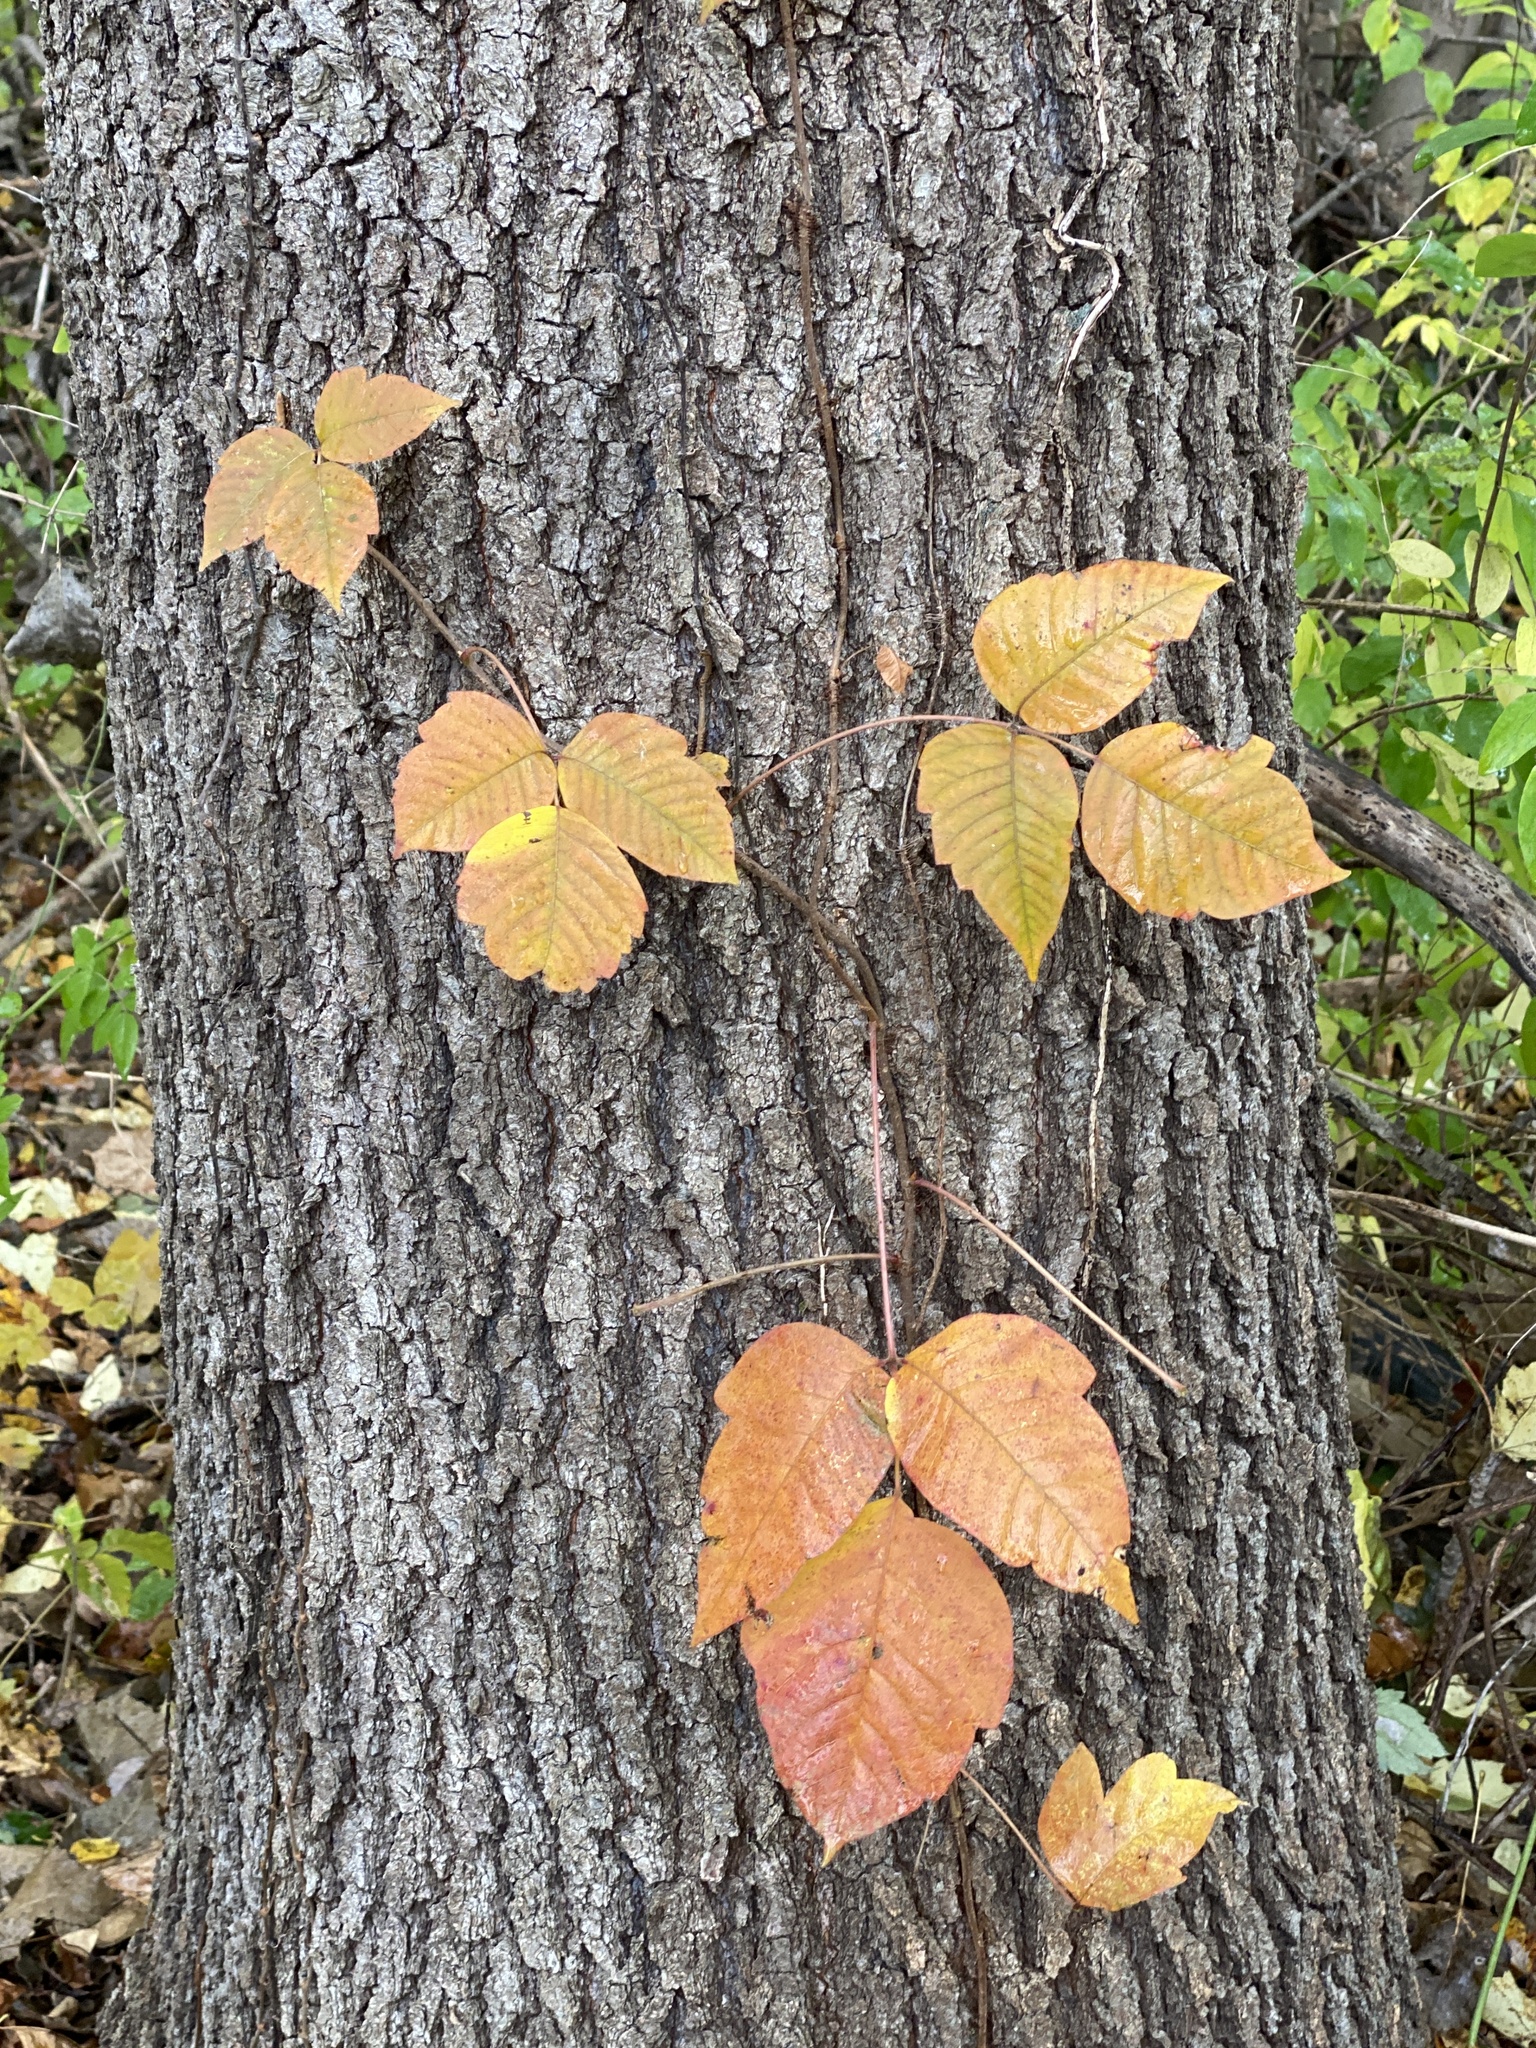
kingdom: Plantae
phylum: Tracheophyta
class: Magnoliopsida
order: Sapindales
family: Anacardiaceae
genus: Toxicodendron
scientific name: Toxicodendron radicans
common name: Poison ivy
